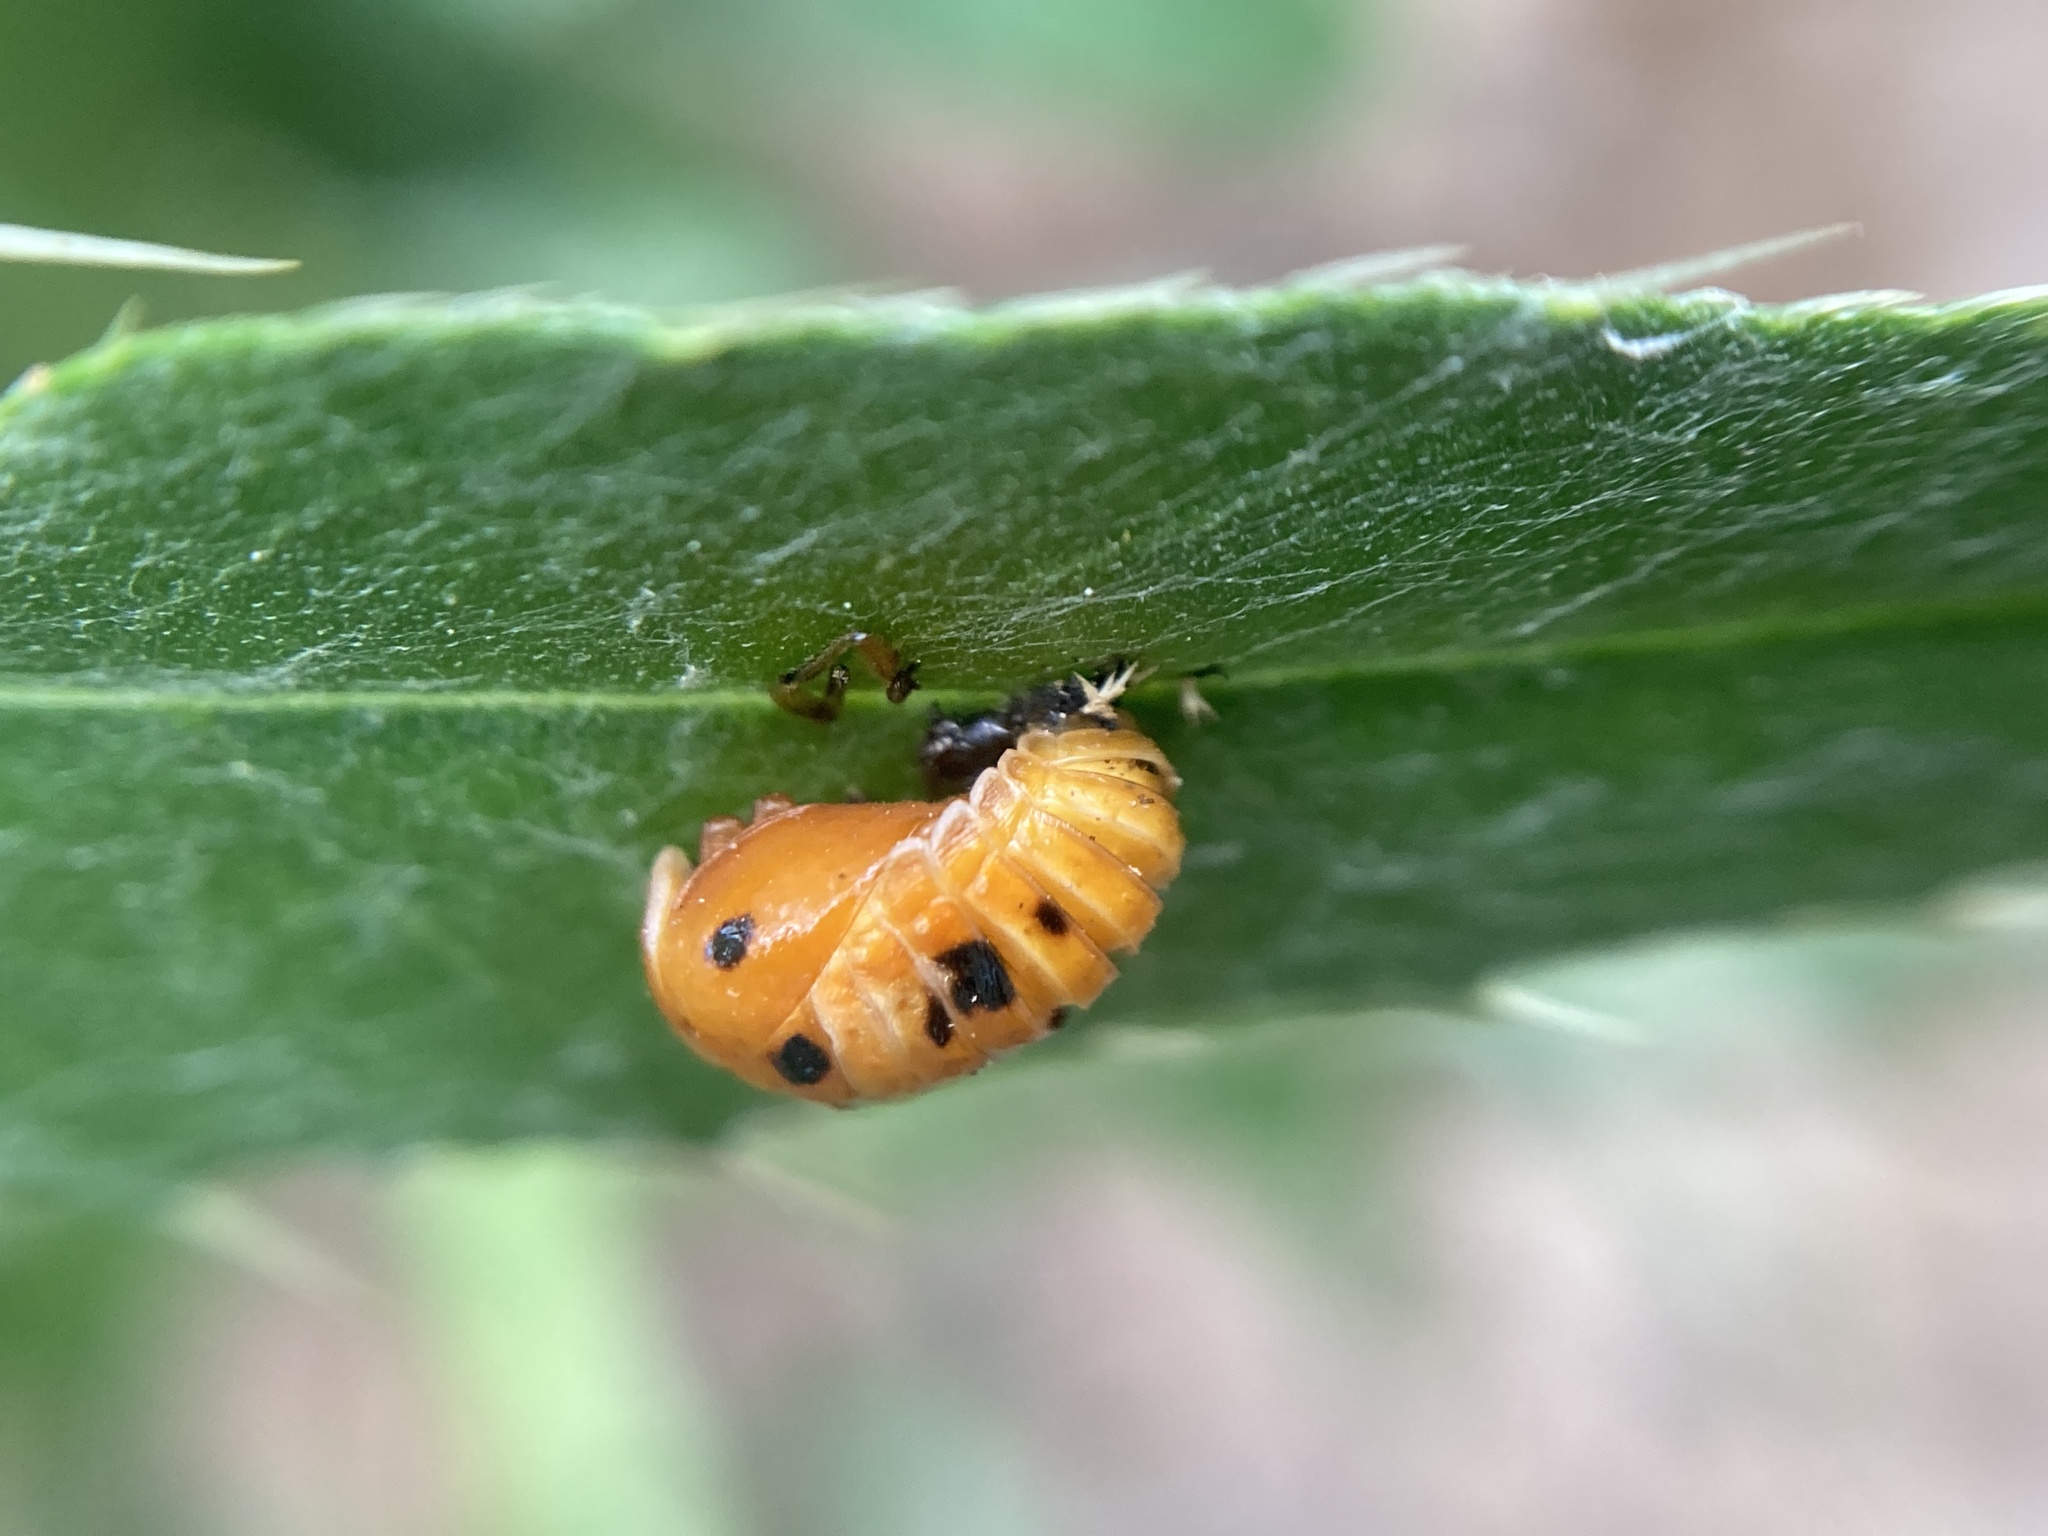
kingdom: Animalia
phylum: Arthropoda
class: Insecta
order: Coleoptera
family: Coccinellidae
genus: Harmonia
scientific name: Harmonia axyridis
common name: Harlequin ladybird
